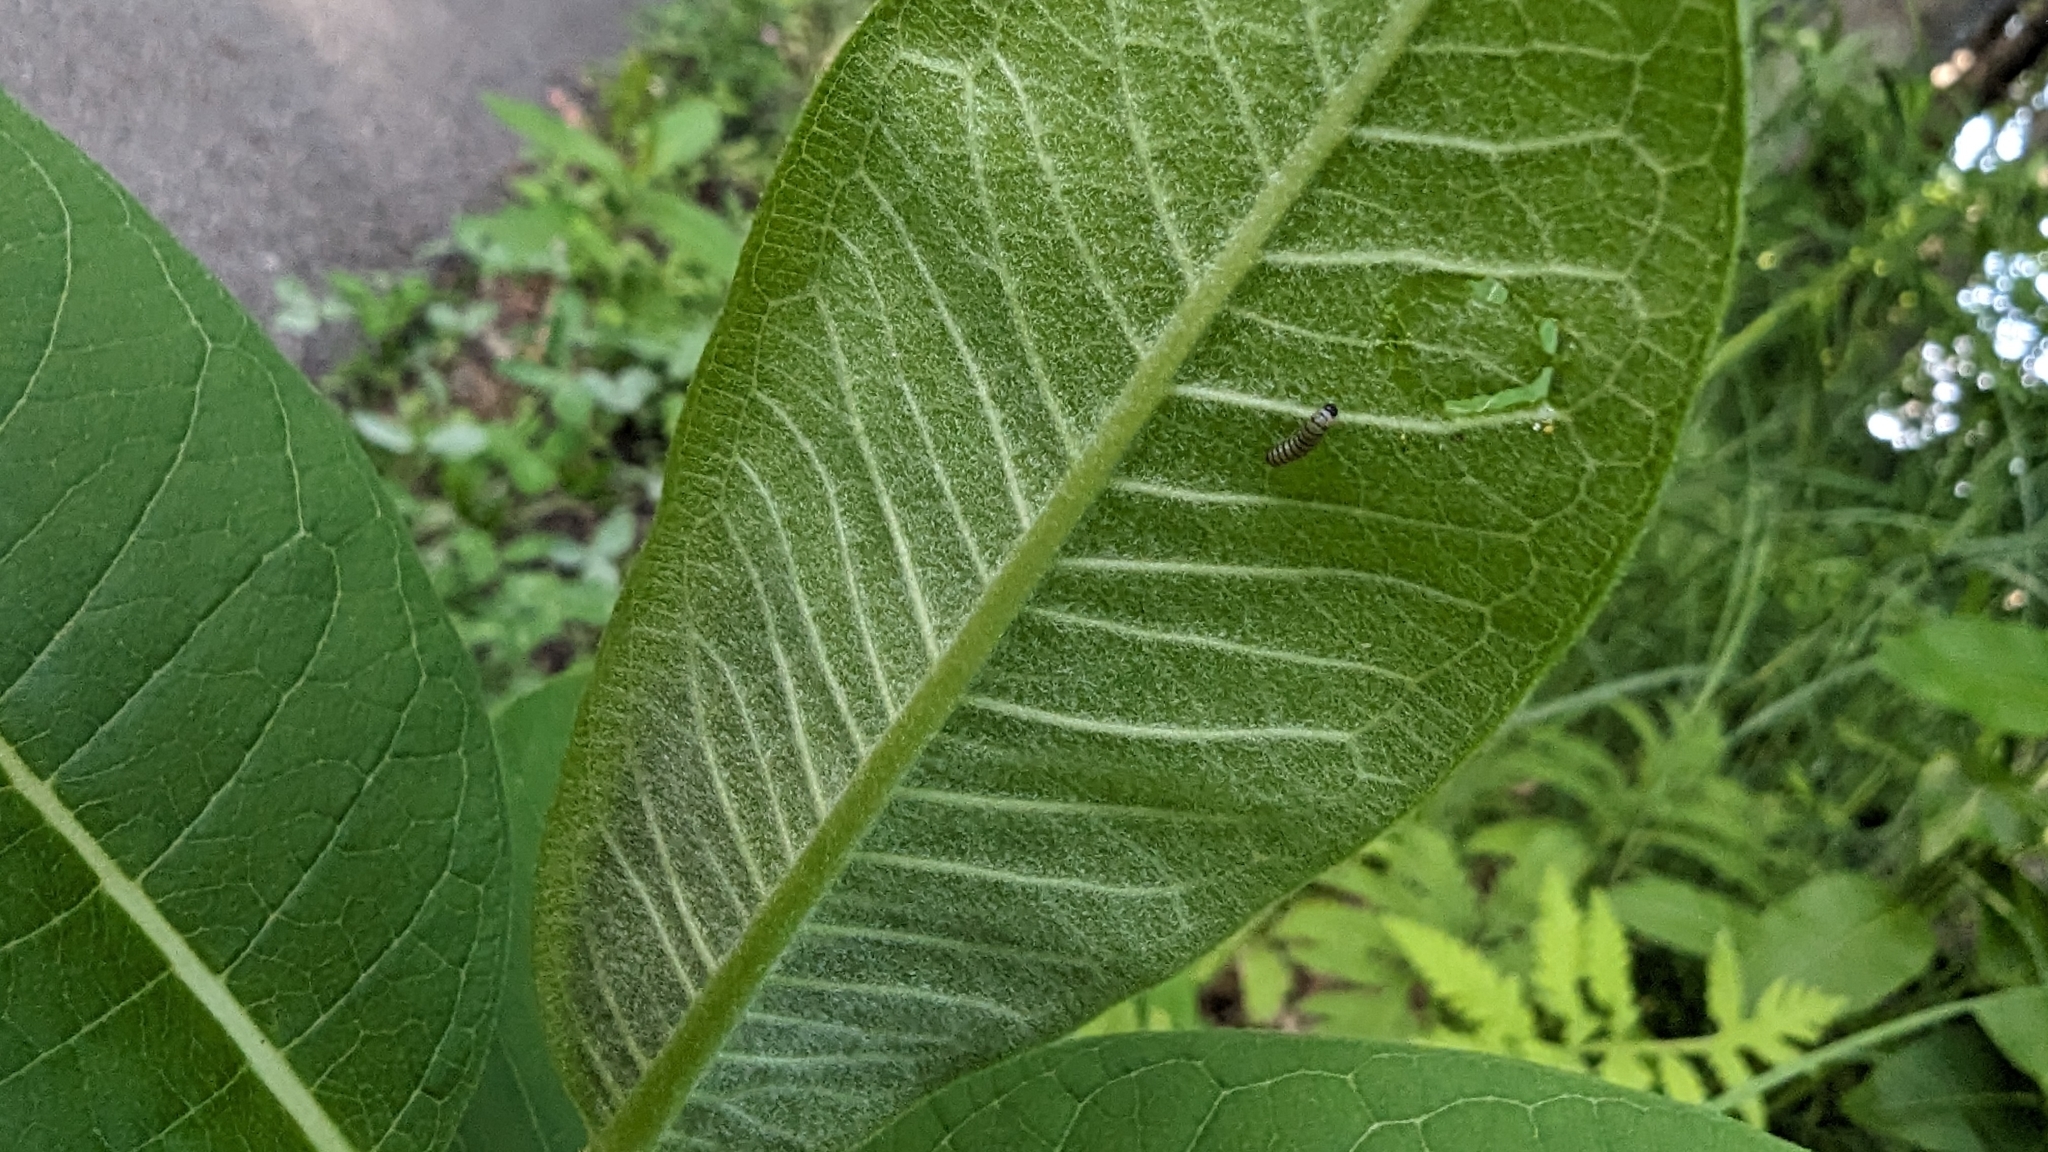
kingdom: Animalia
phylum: Arthropoda
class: Insecta
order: Lepidoptera
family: Nymphalidae
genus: Danaus
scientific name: Danaus plexippus
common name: Monarch
